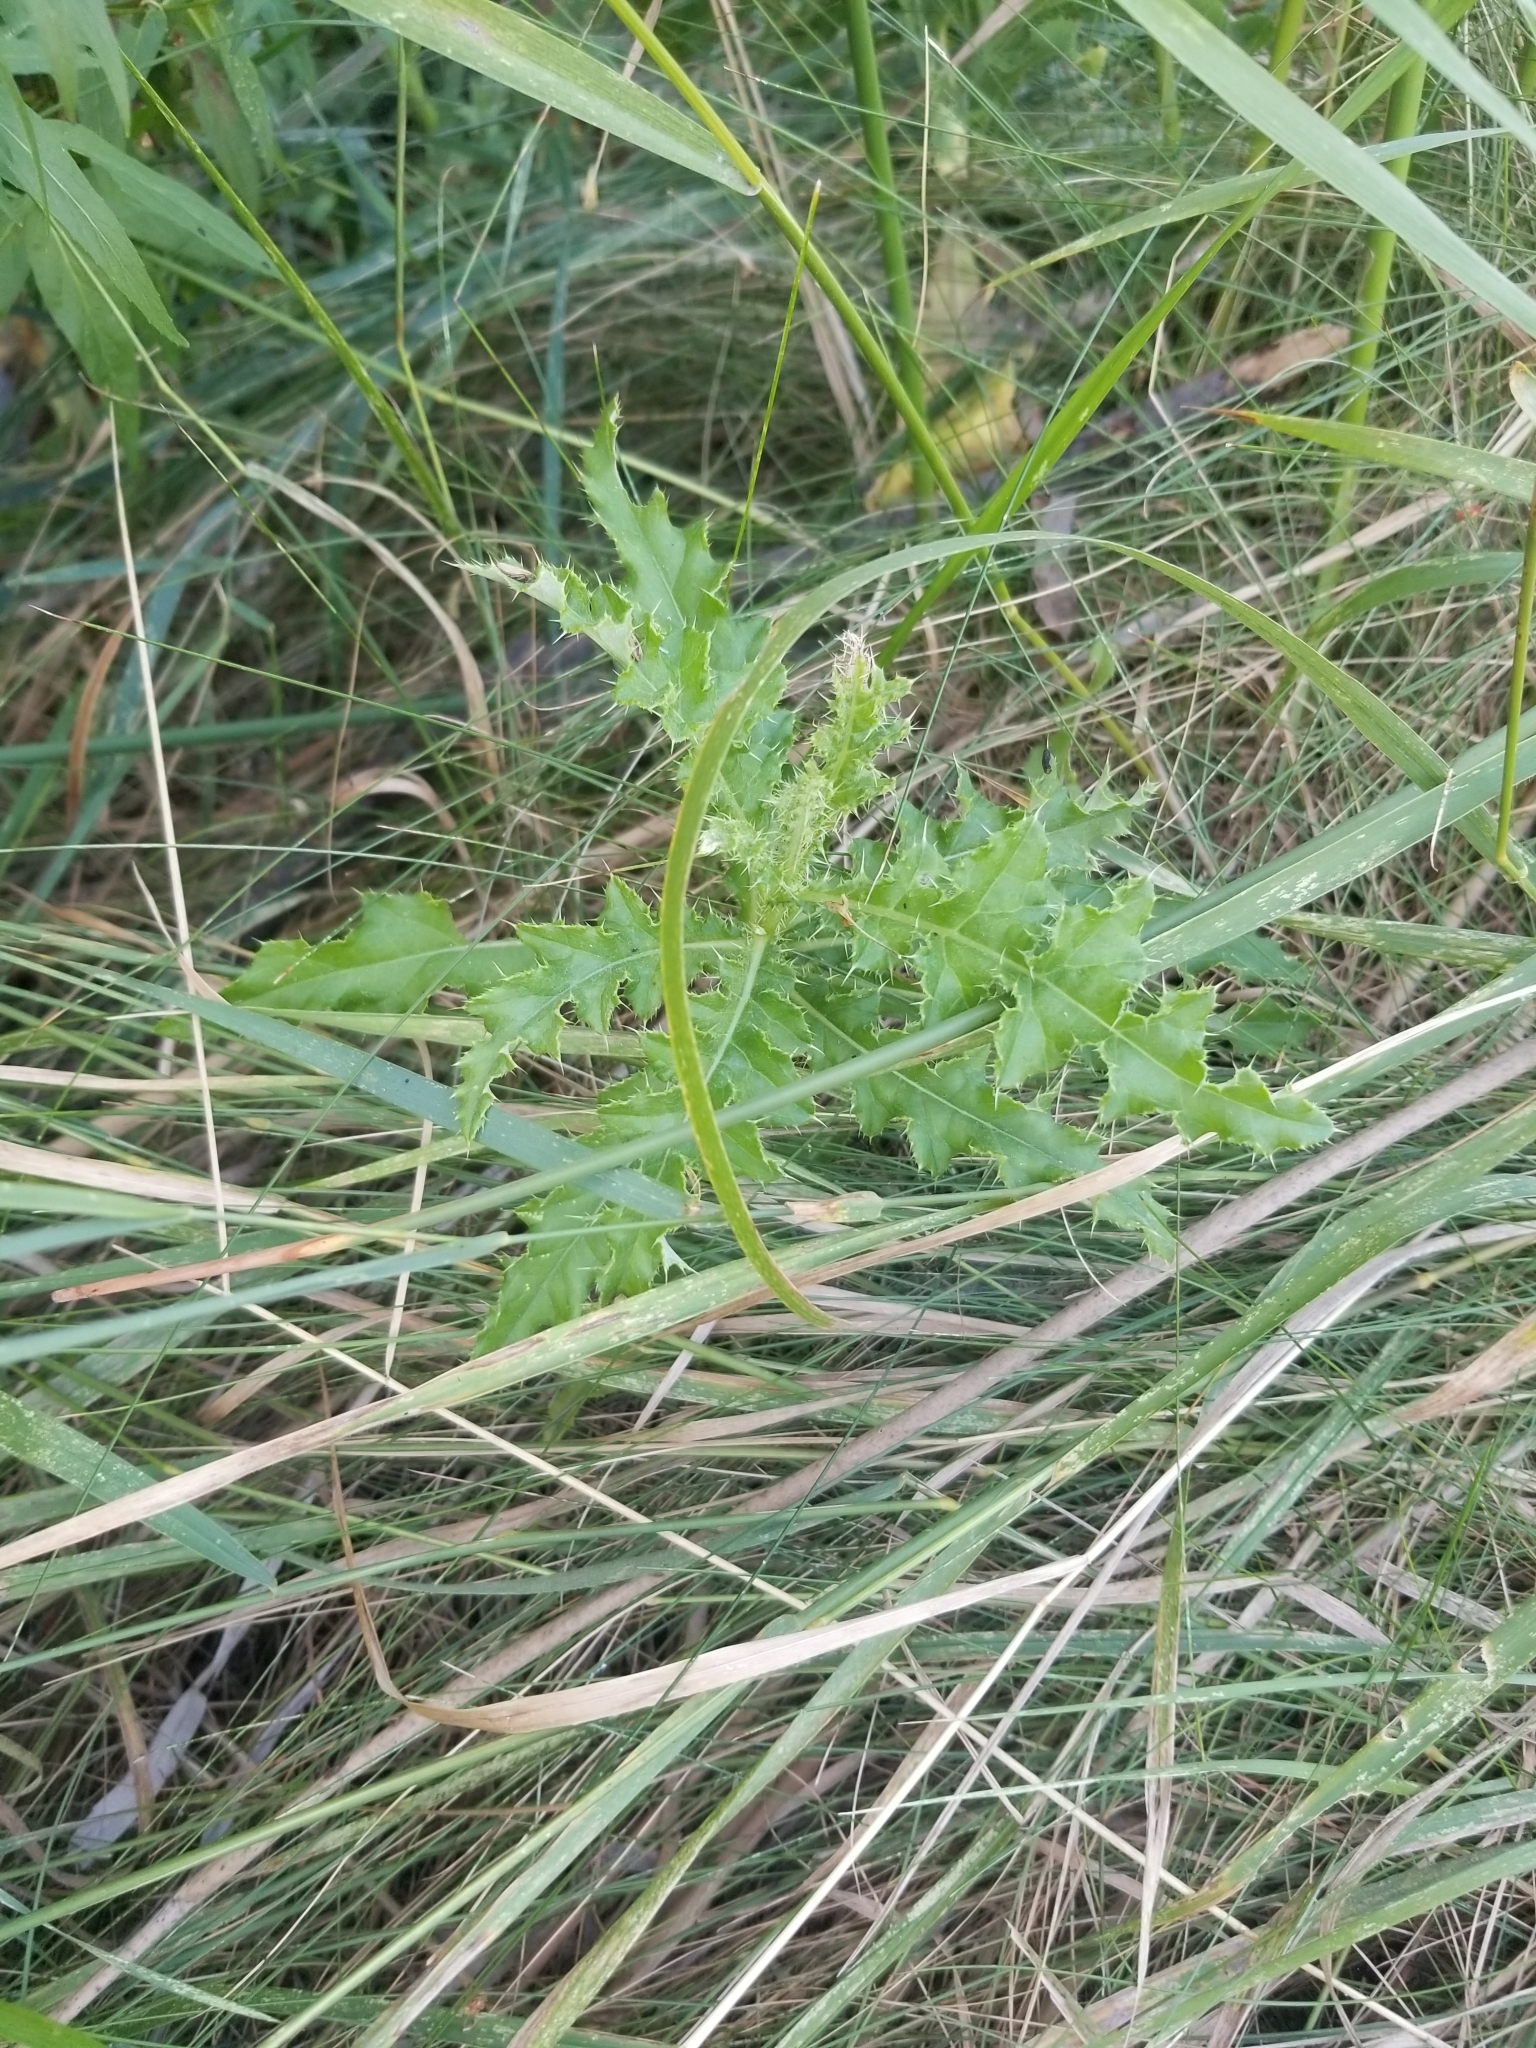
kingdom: Plantae
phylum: Tracheophyta
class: Magnoliopsida
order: Asterales
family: Asteraceae
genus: Cirsium
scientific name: Cirsium arvense
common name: Creeping thistle
